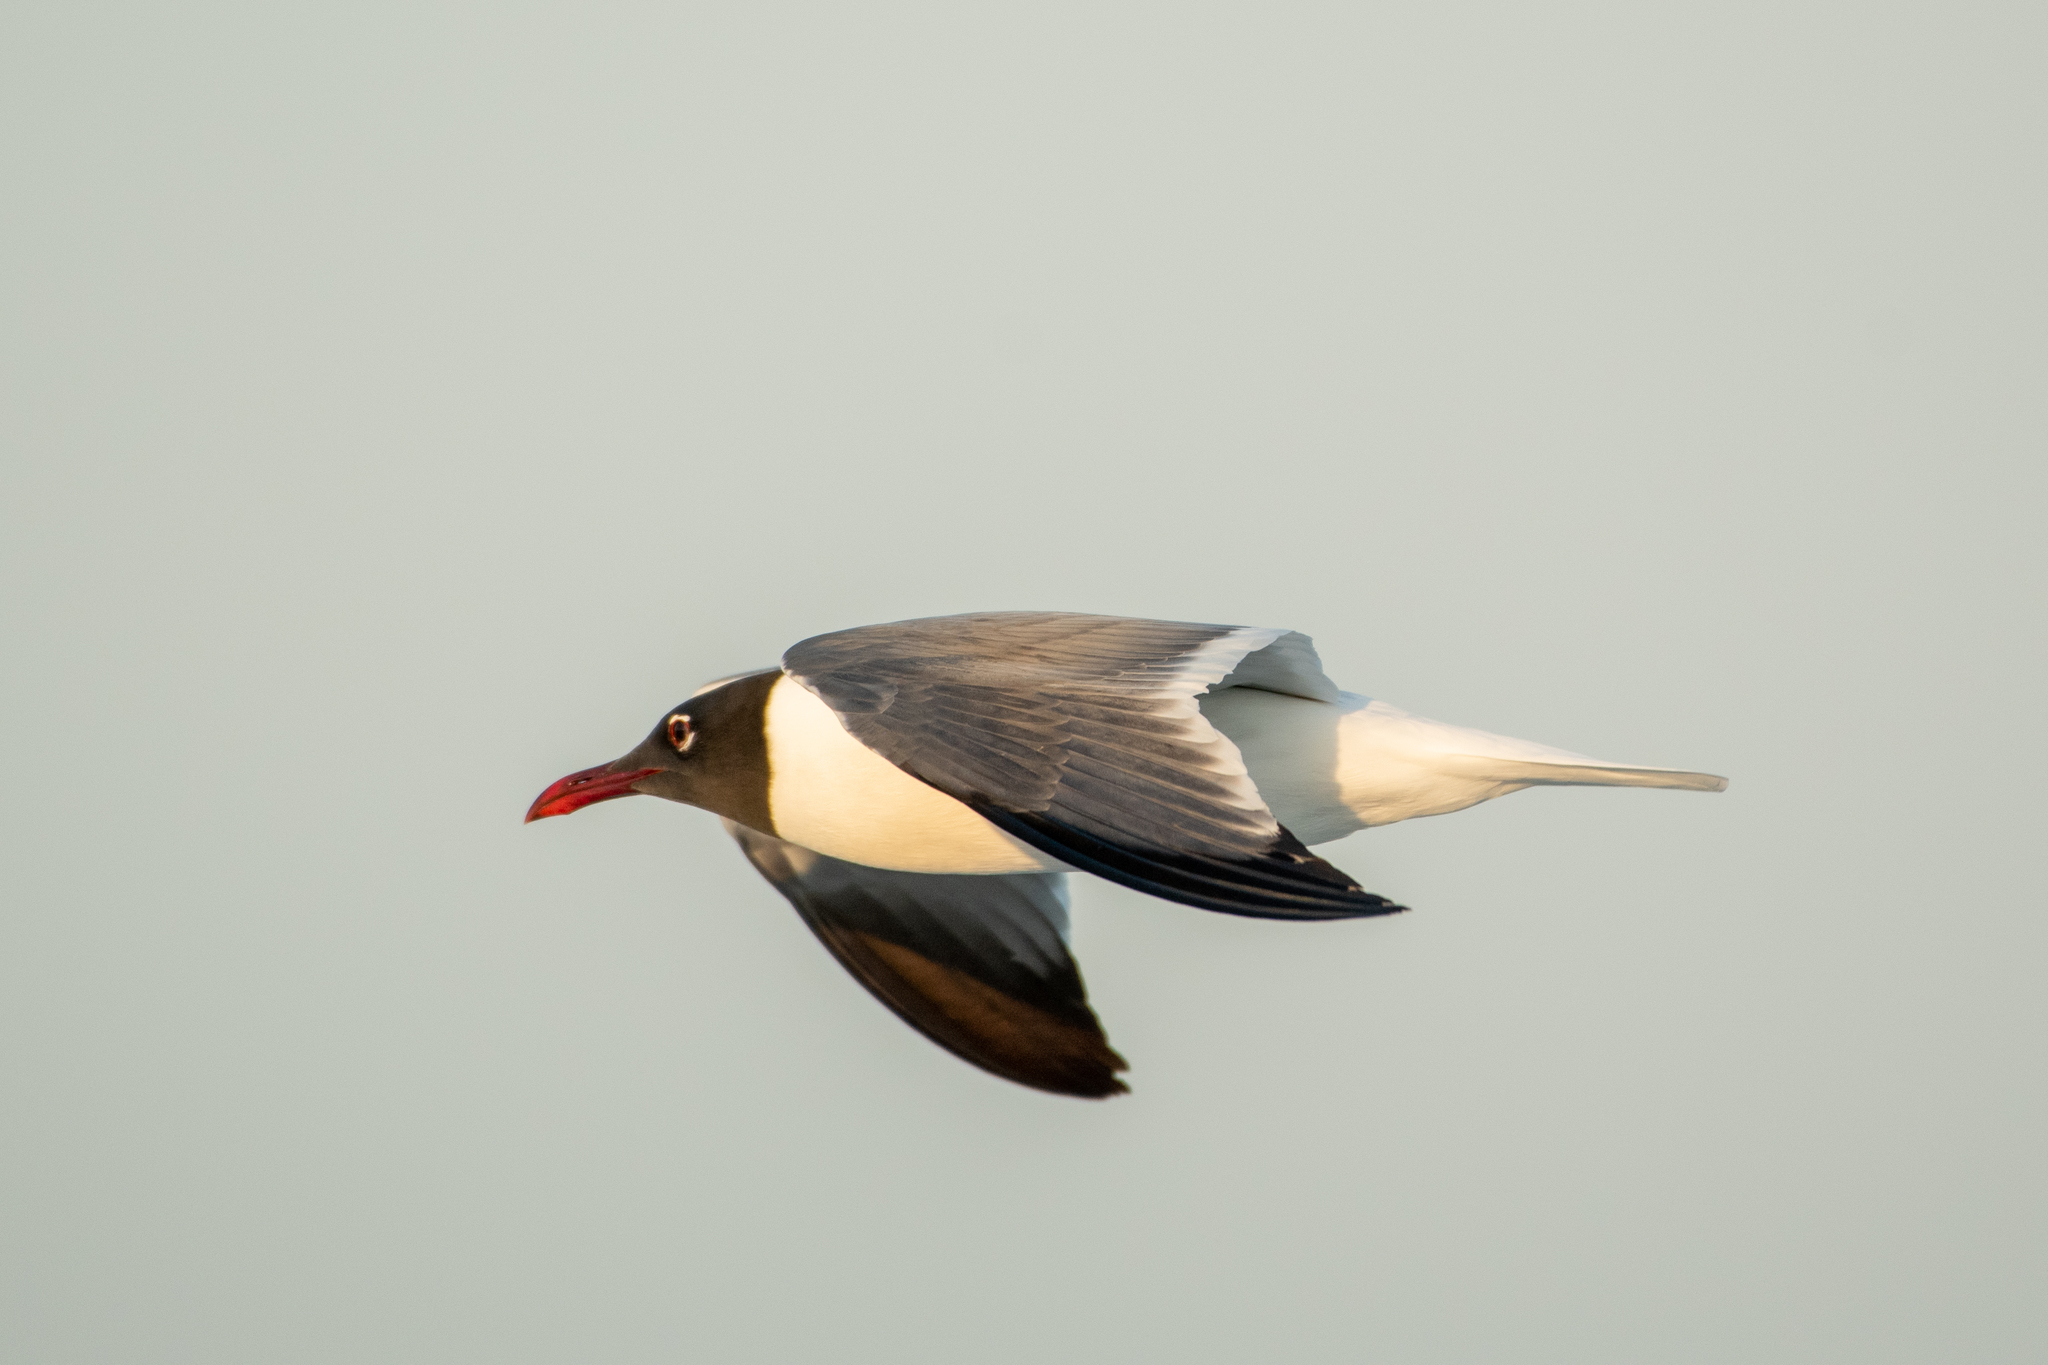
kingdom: Animalia
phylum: Chordata
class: Aves
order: Charadriiformes
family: Laridae
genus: Leucophaeus
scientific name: Leucophaeus atricilla
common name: Laughing gull
